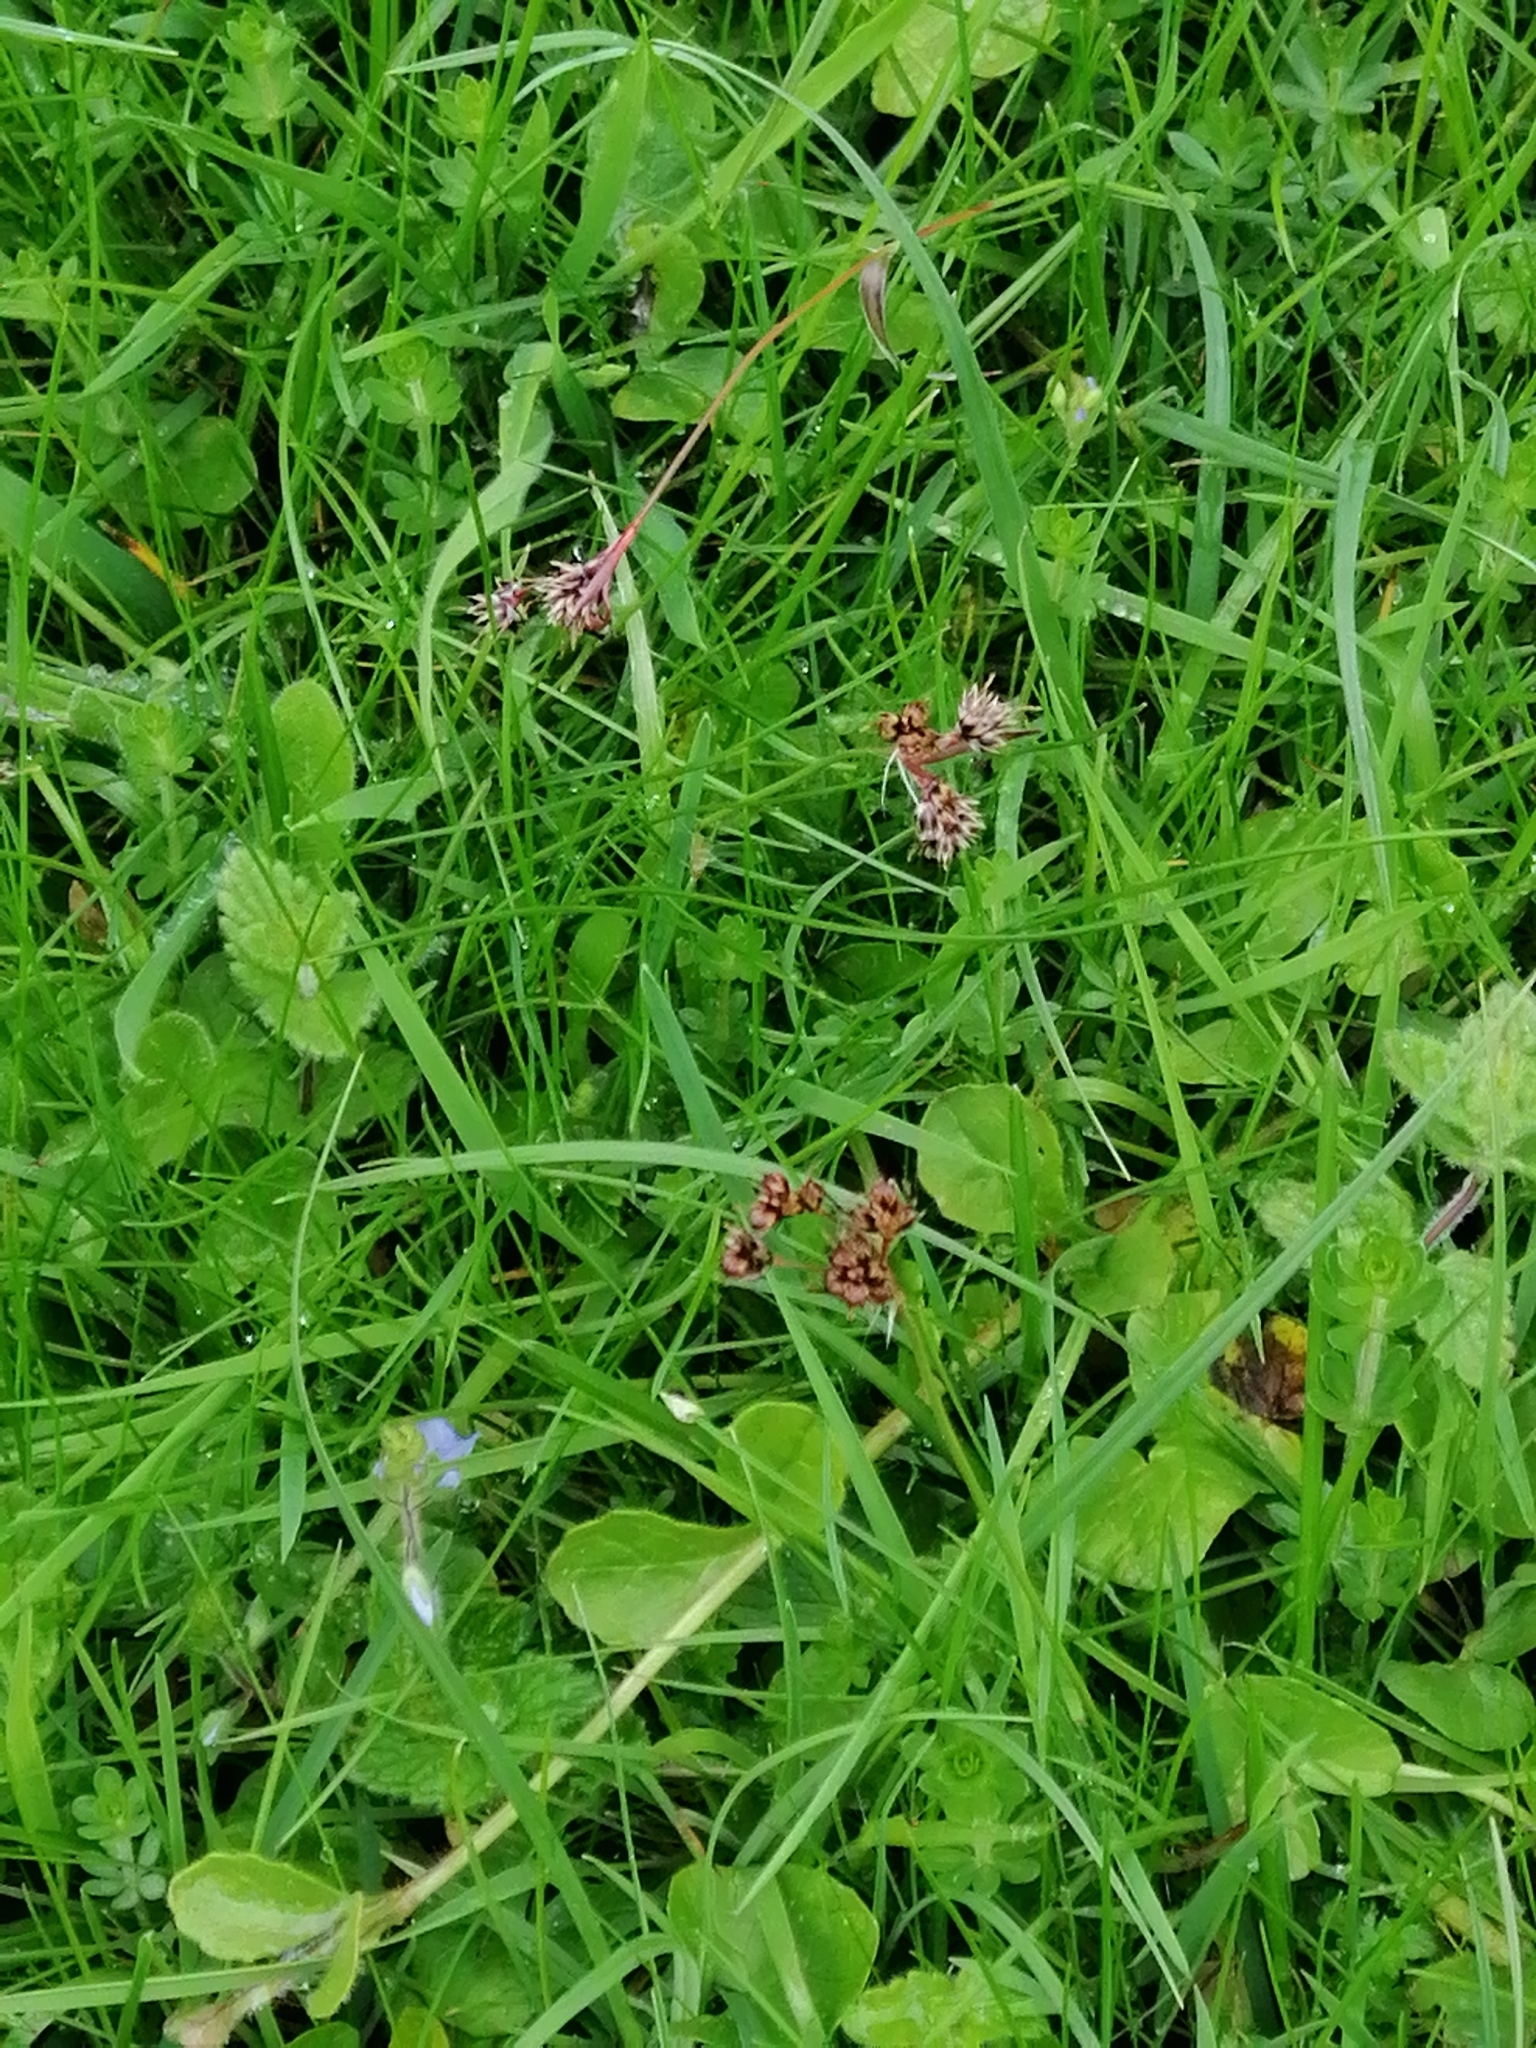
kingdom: Plantae
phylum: Tracheophyta
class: Liliopsida
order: Poales
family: Juncaceae
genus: Luzula
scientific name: Luzula campestris
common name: Field wood-rush
